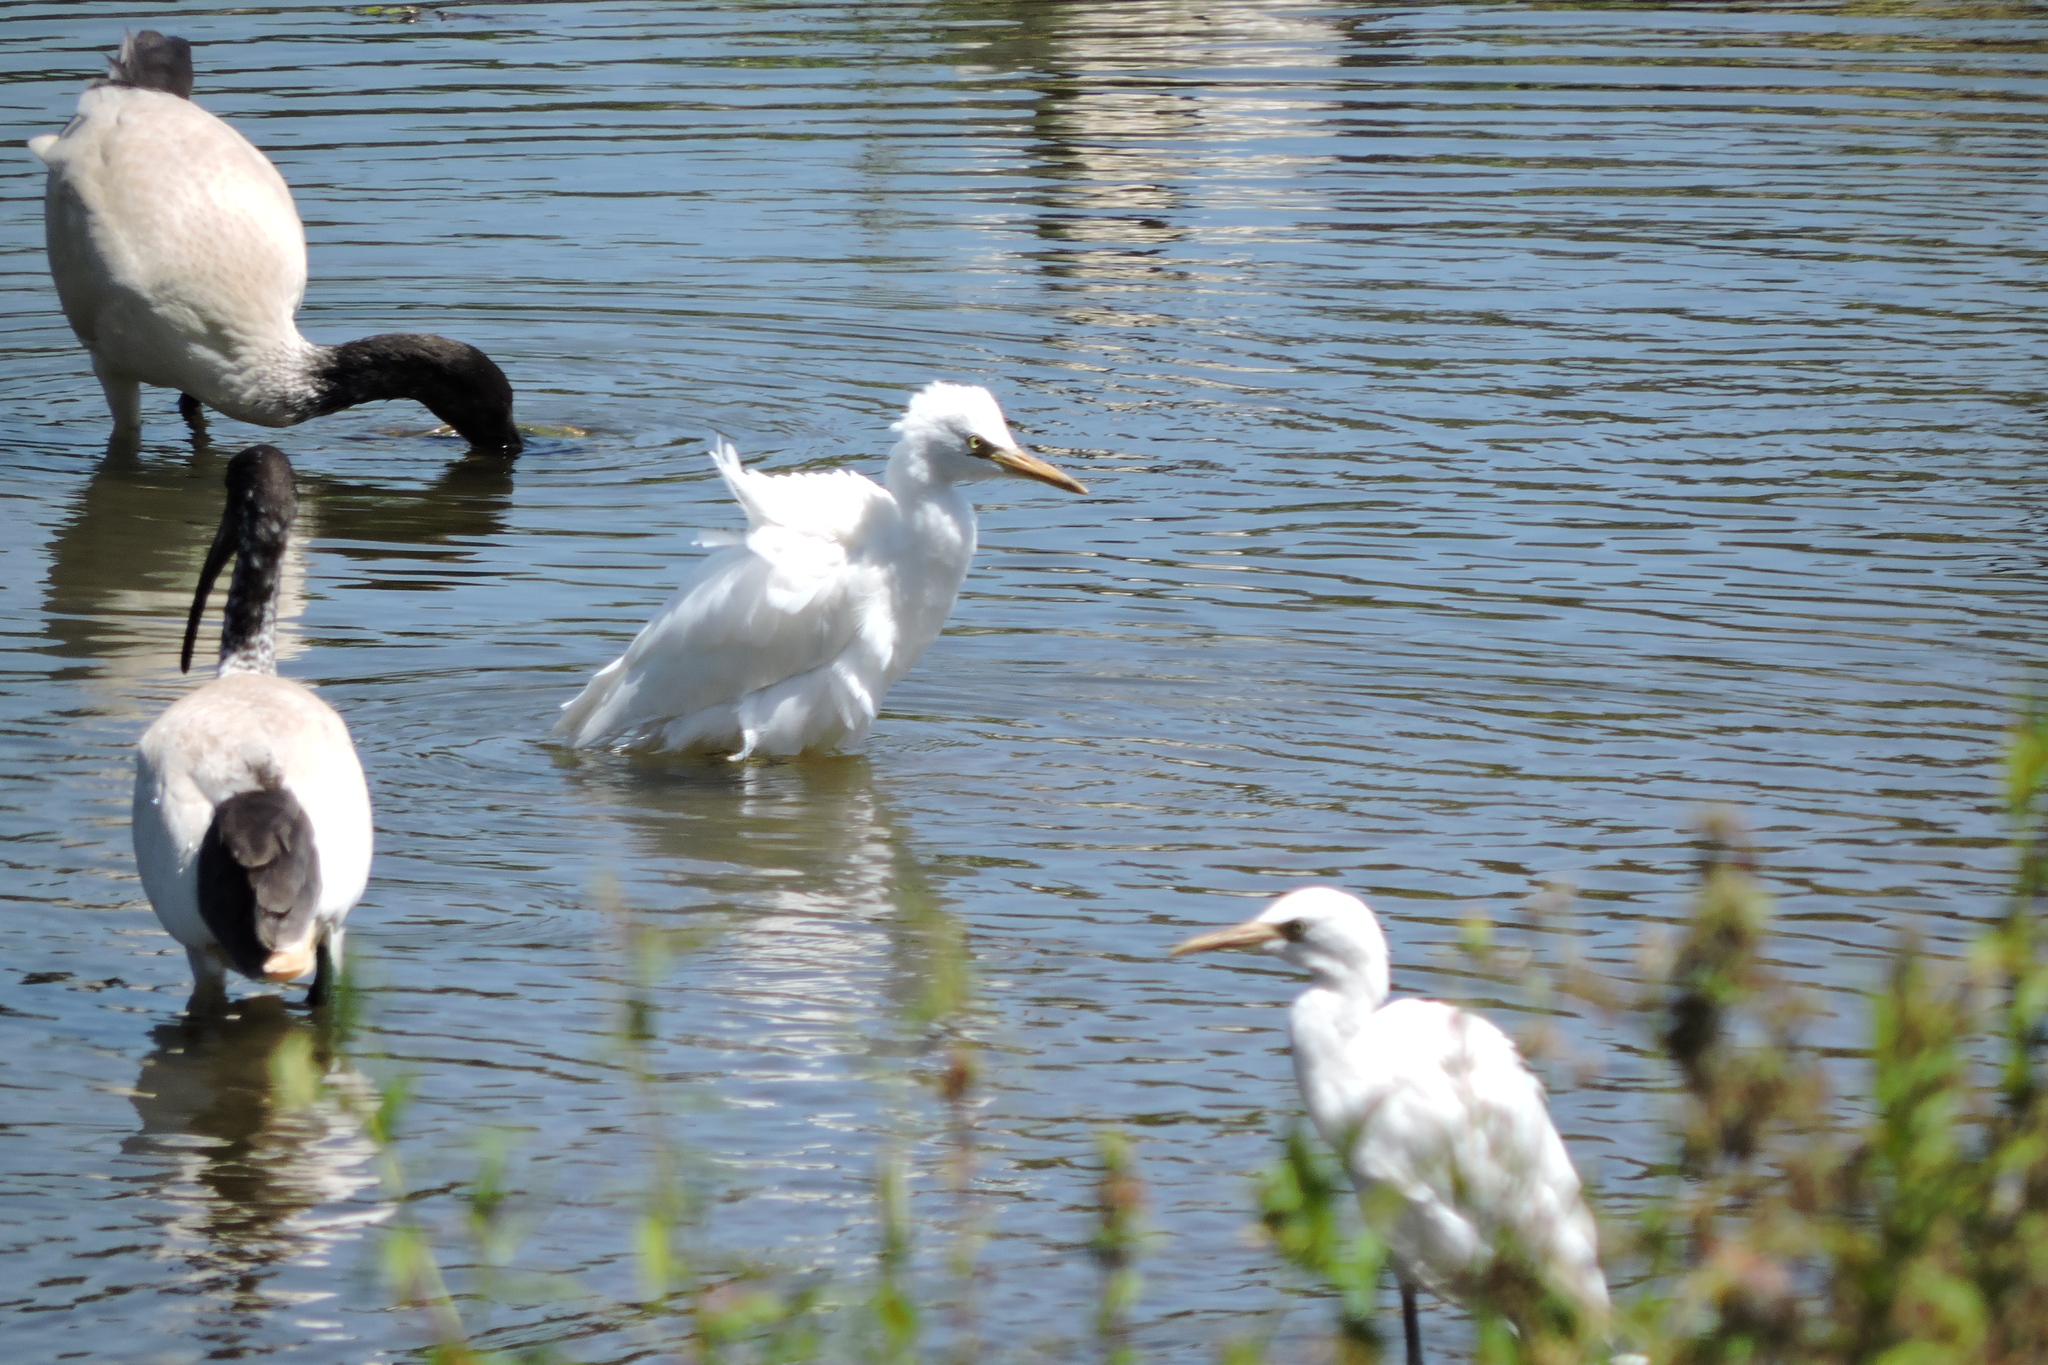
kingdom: Animalia
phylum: Chordata
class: Aves
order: Pelecaniformes
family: Ardeidae
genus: Bubulcus
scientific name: Bubulcus coromandus
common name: Eastern cattle egret
